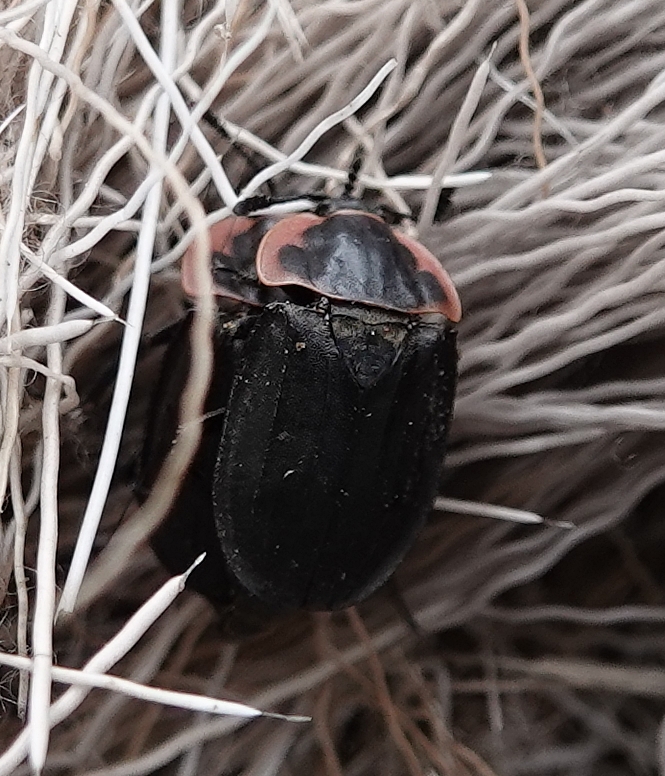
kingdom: Animalia
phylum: Arthropoda
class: Insecta
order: Coleoptera
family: Staphylinidae
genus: Oiceoptoma
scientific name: Oiceoptoma noveboracense
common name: Margined carrion beetle
